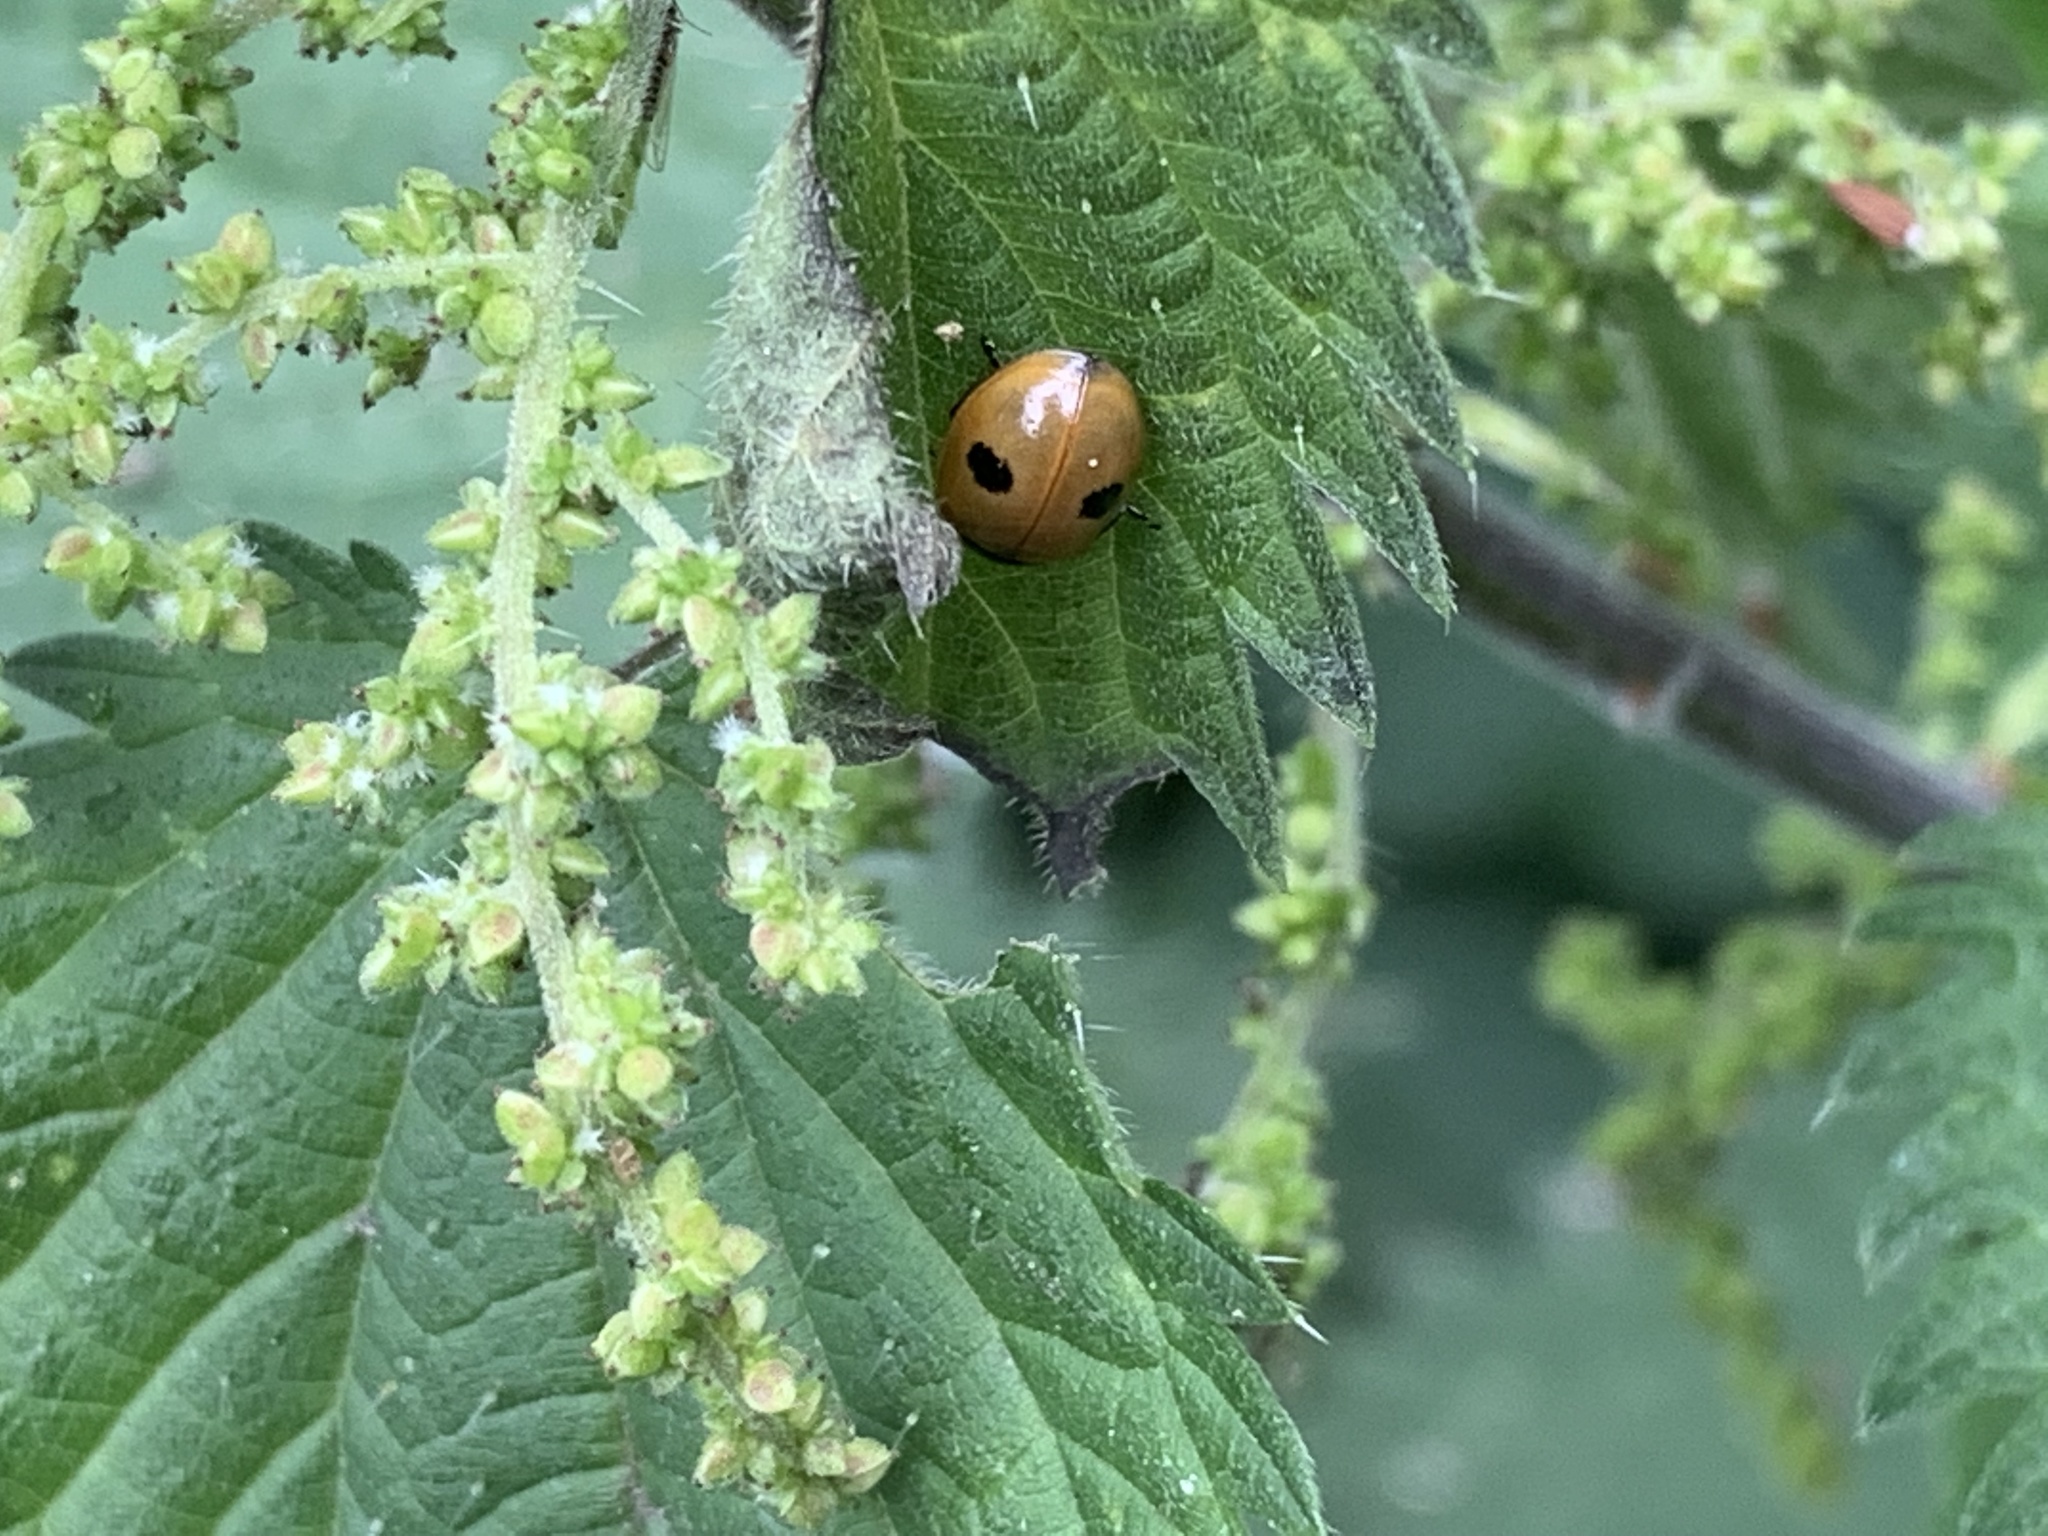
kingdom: Animalia
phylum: Arthropoda
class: Insecta
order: Coleoptera
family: Coccinellidae
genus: Adalia
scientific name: Adalia bipunctata
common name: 2-spot ladybird
